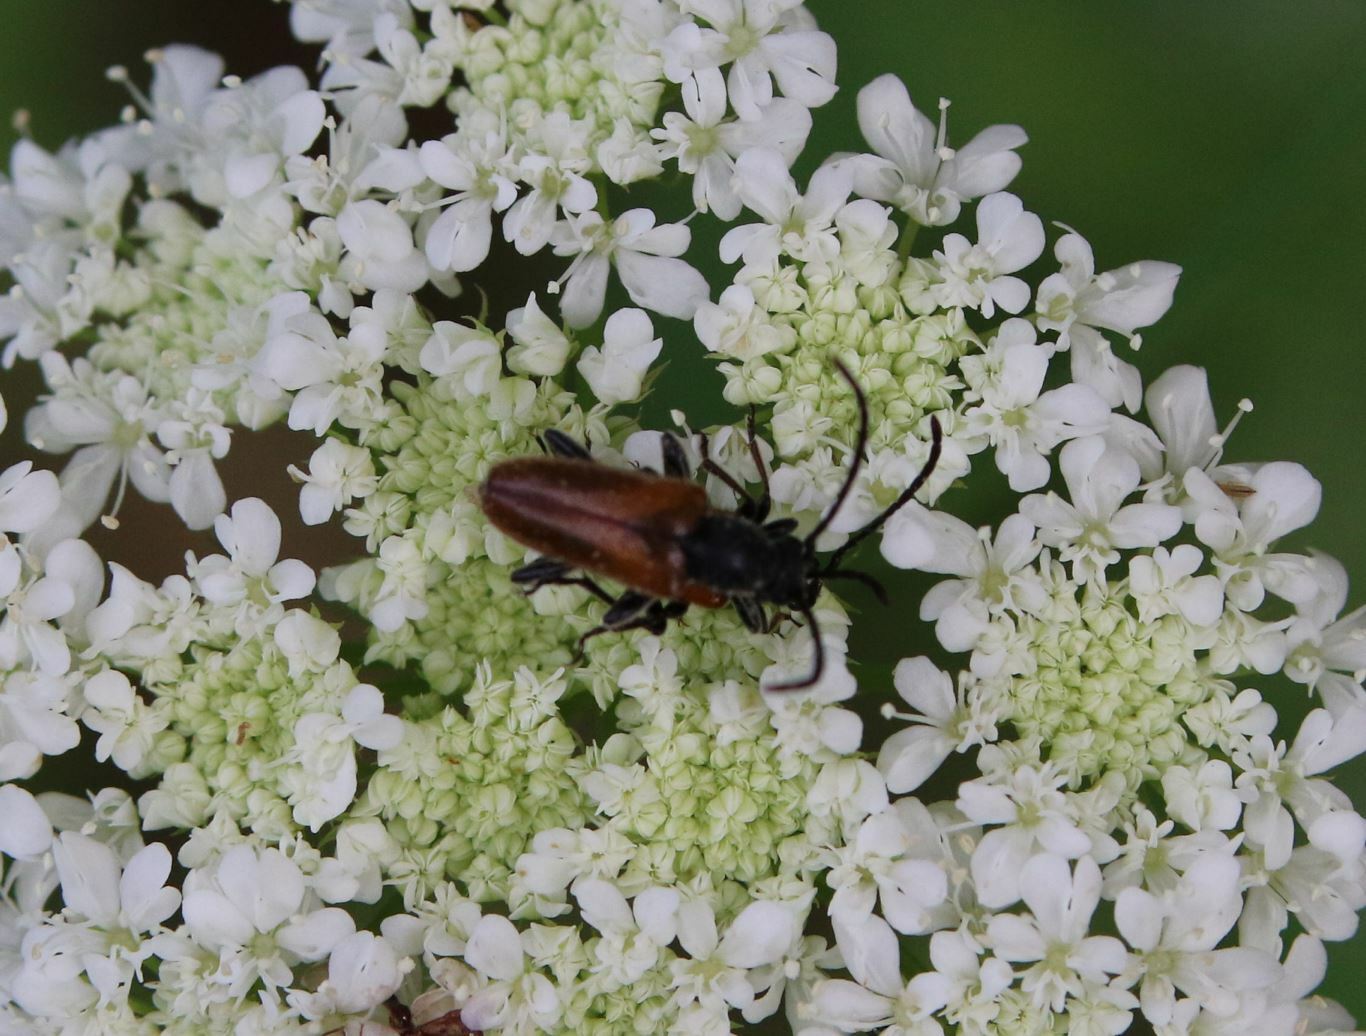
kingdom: Animalia
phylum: Arthropoda
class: Insecta
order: Coleoptera
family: Cerambycidae
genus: Pseudovadonia
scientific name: Pseudovadonia livida
